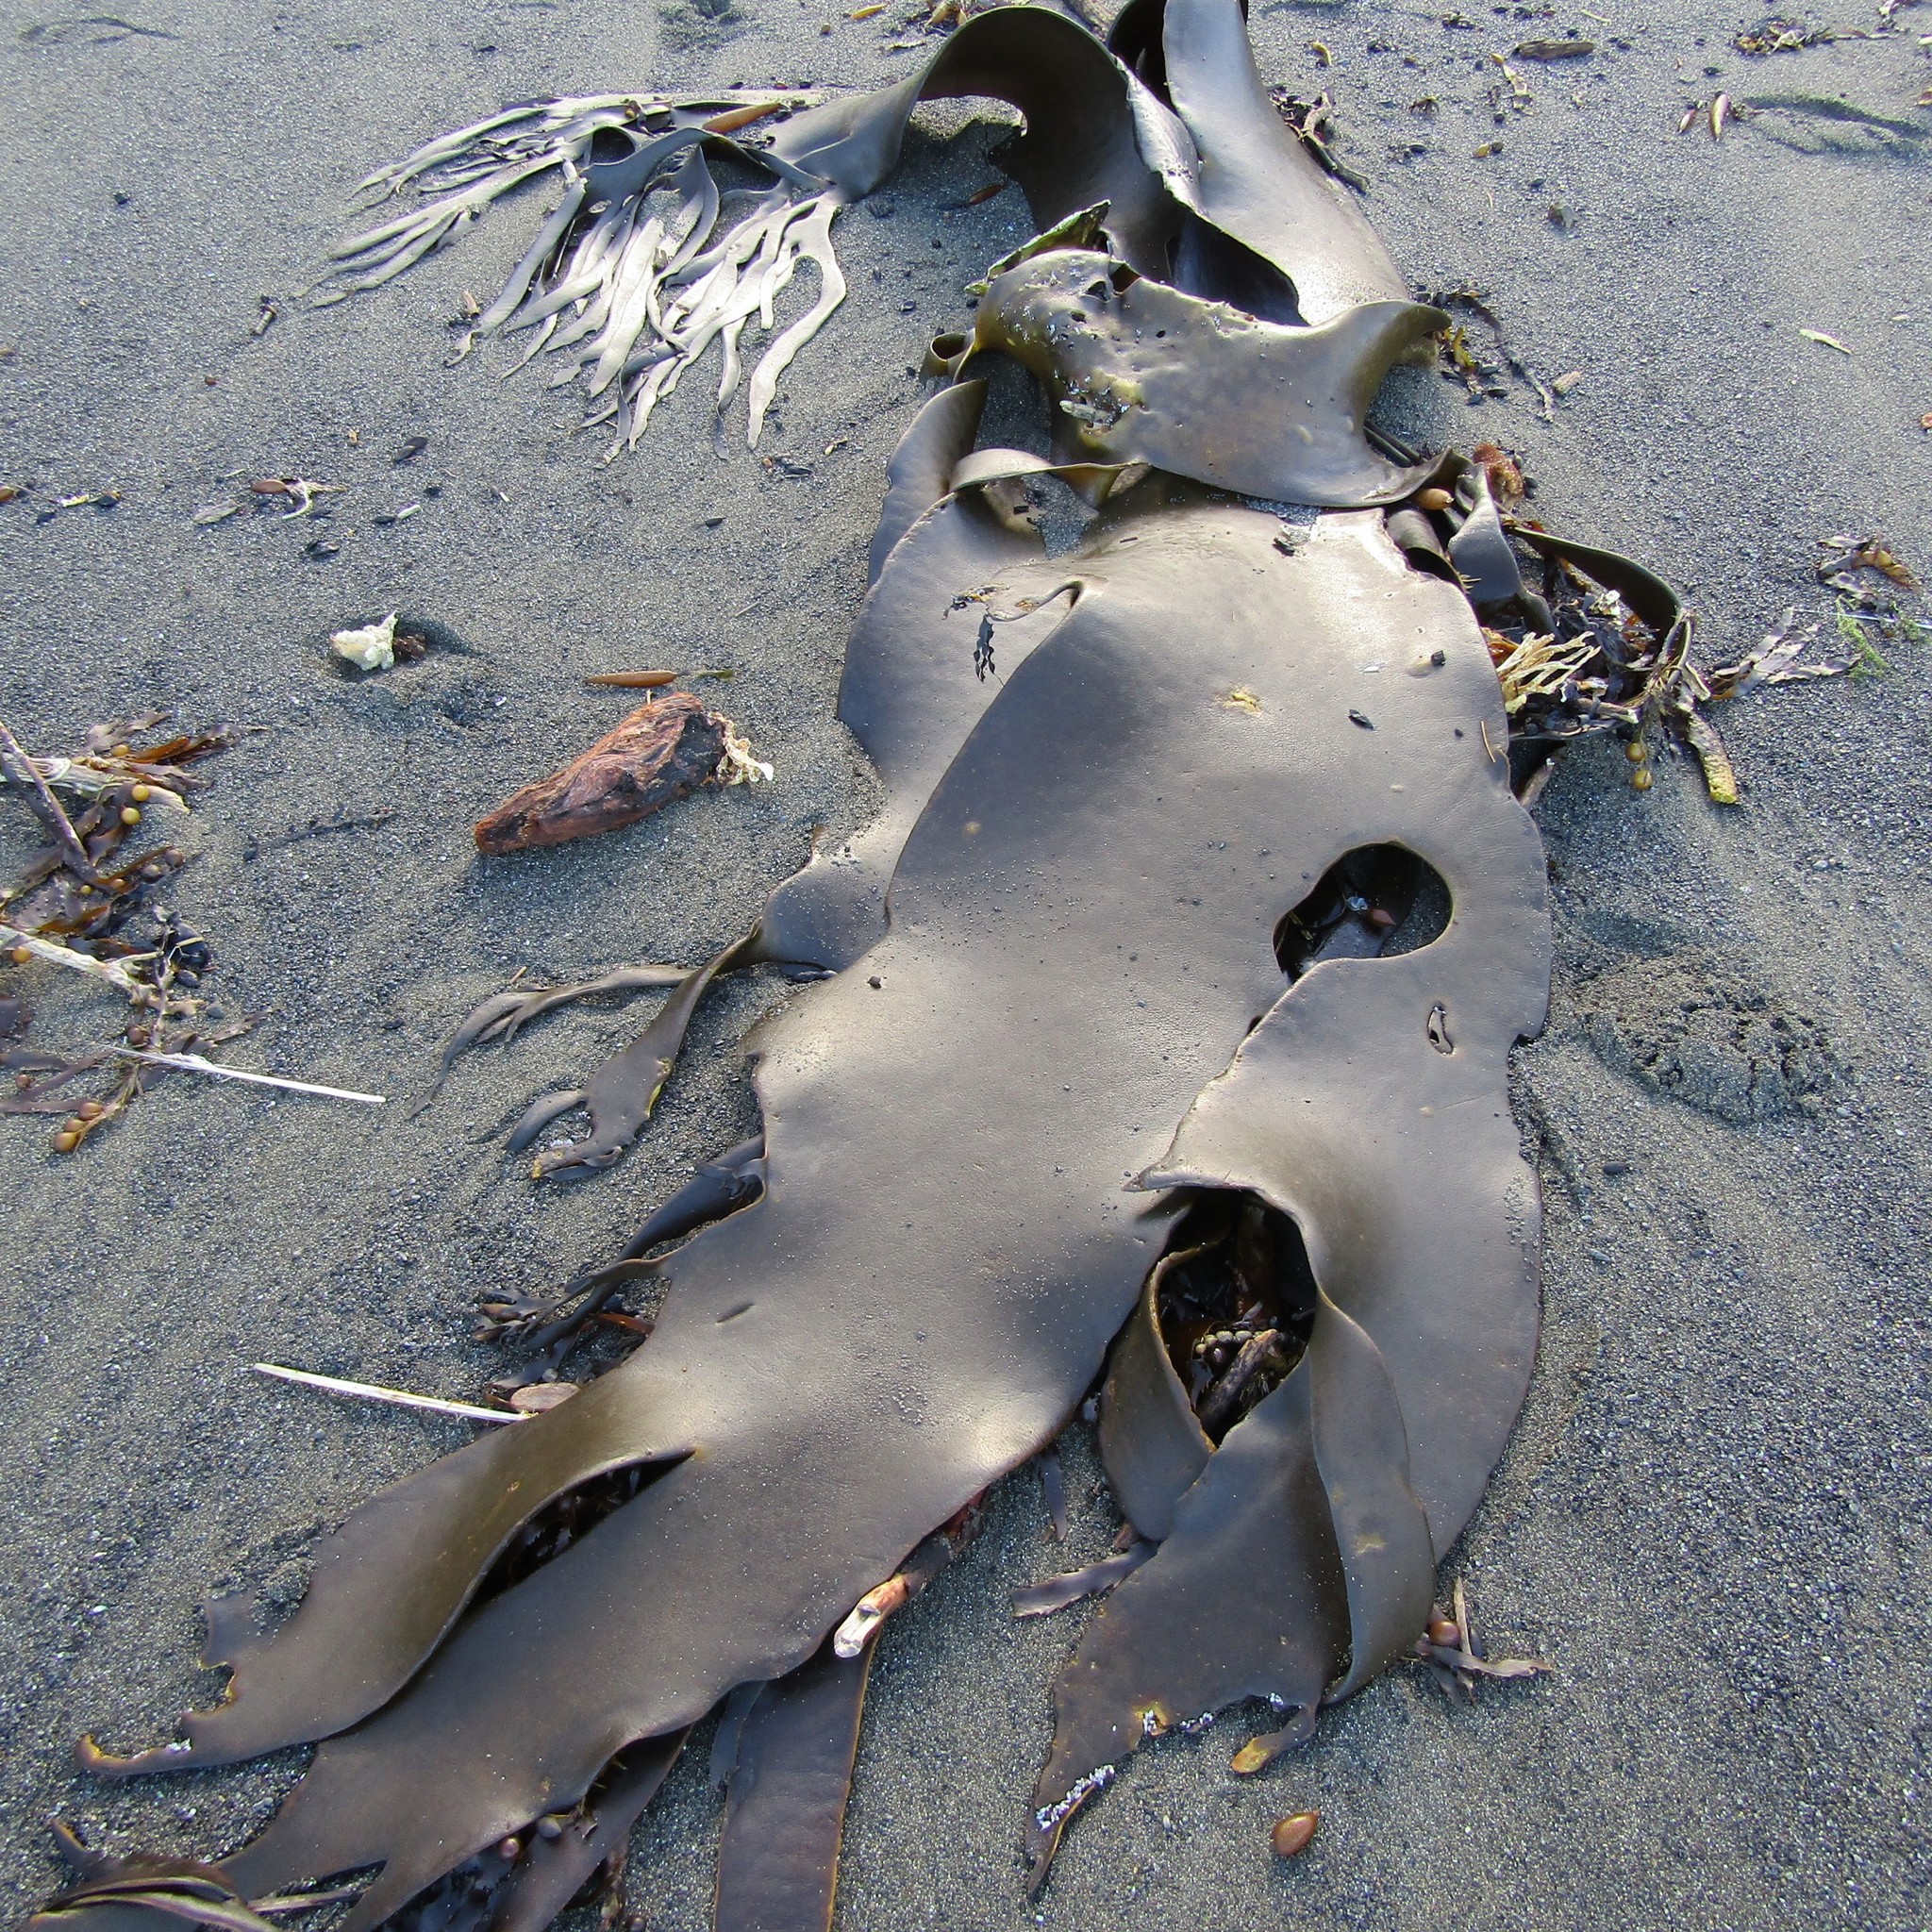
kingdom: Chromista
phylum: Ochrophyta
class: Phaeophyceae
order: Fucales
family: Durvillaeaceae
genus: Durvillaea
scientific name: Durvillaea antarctica
